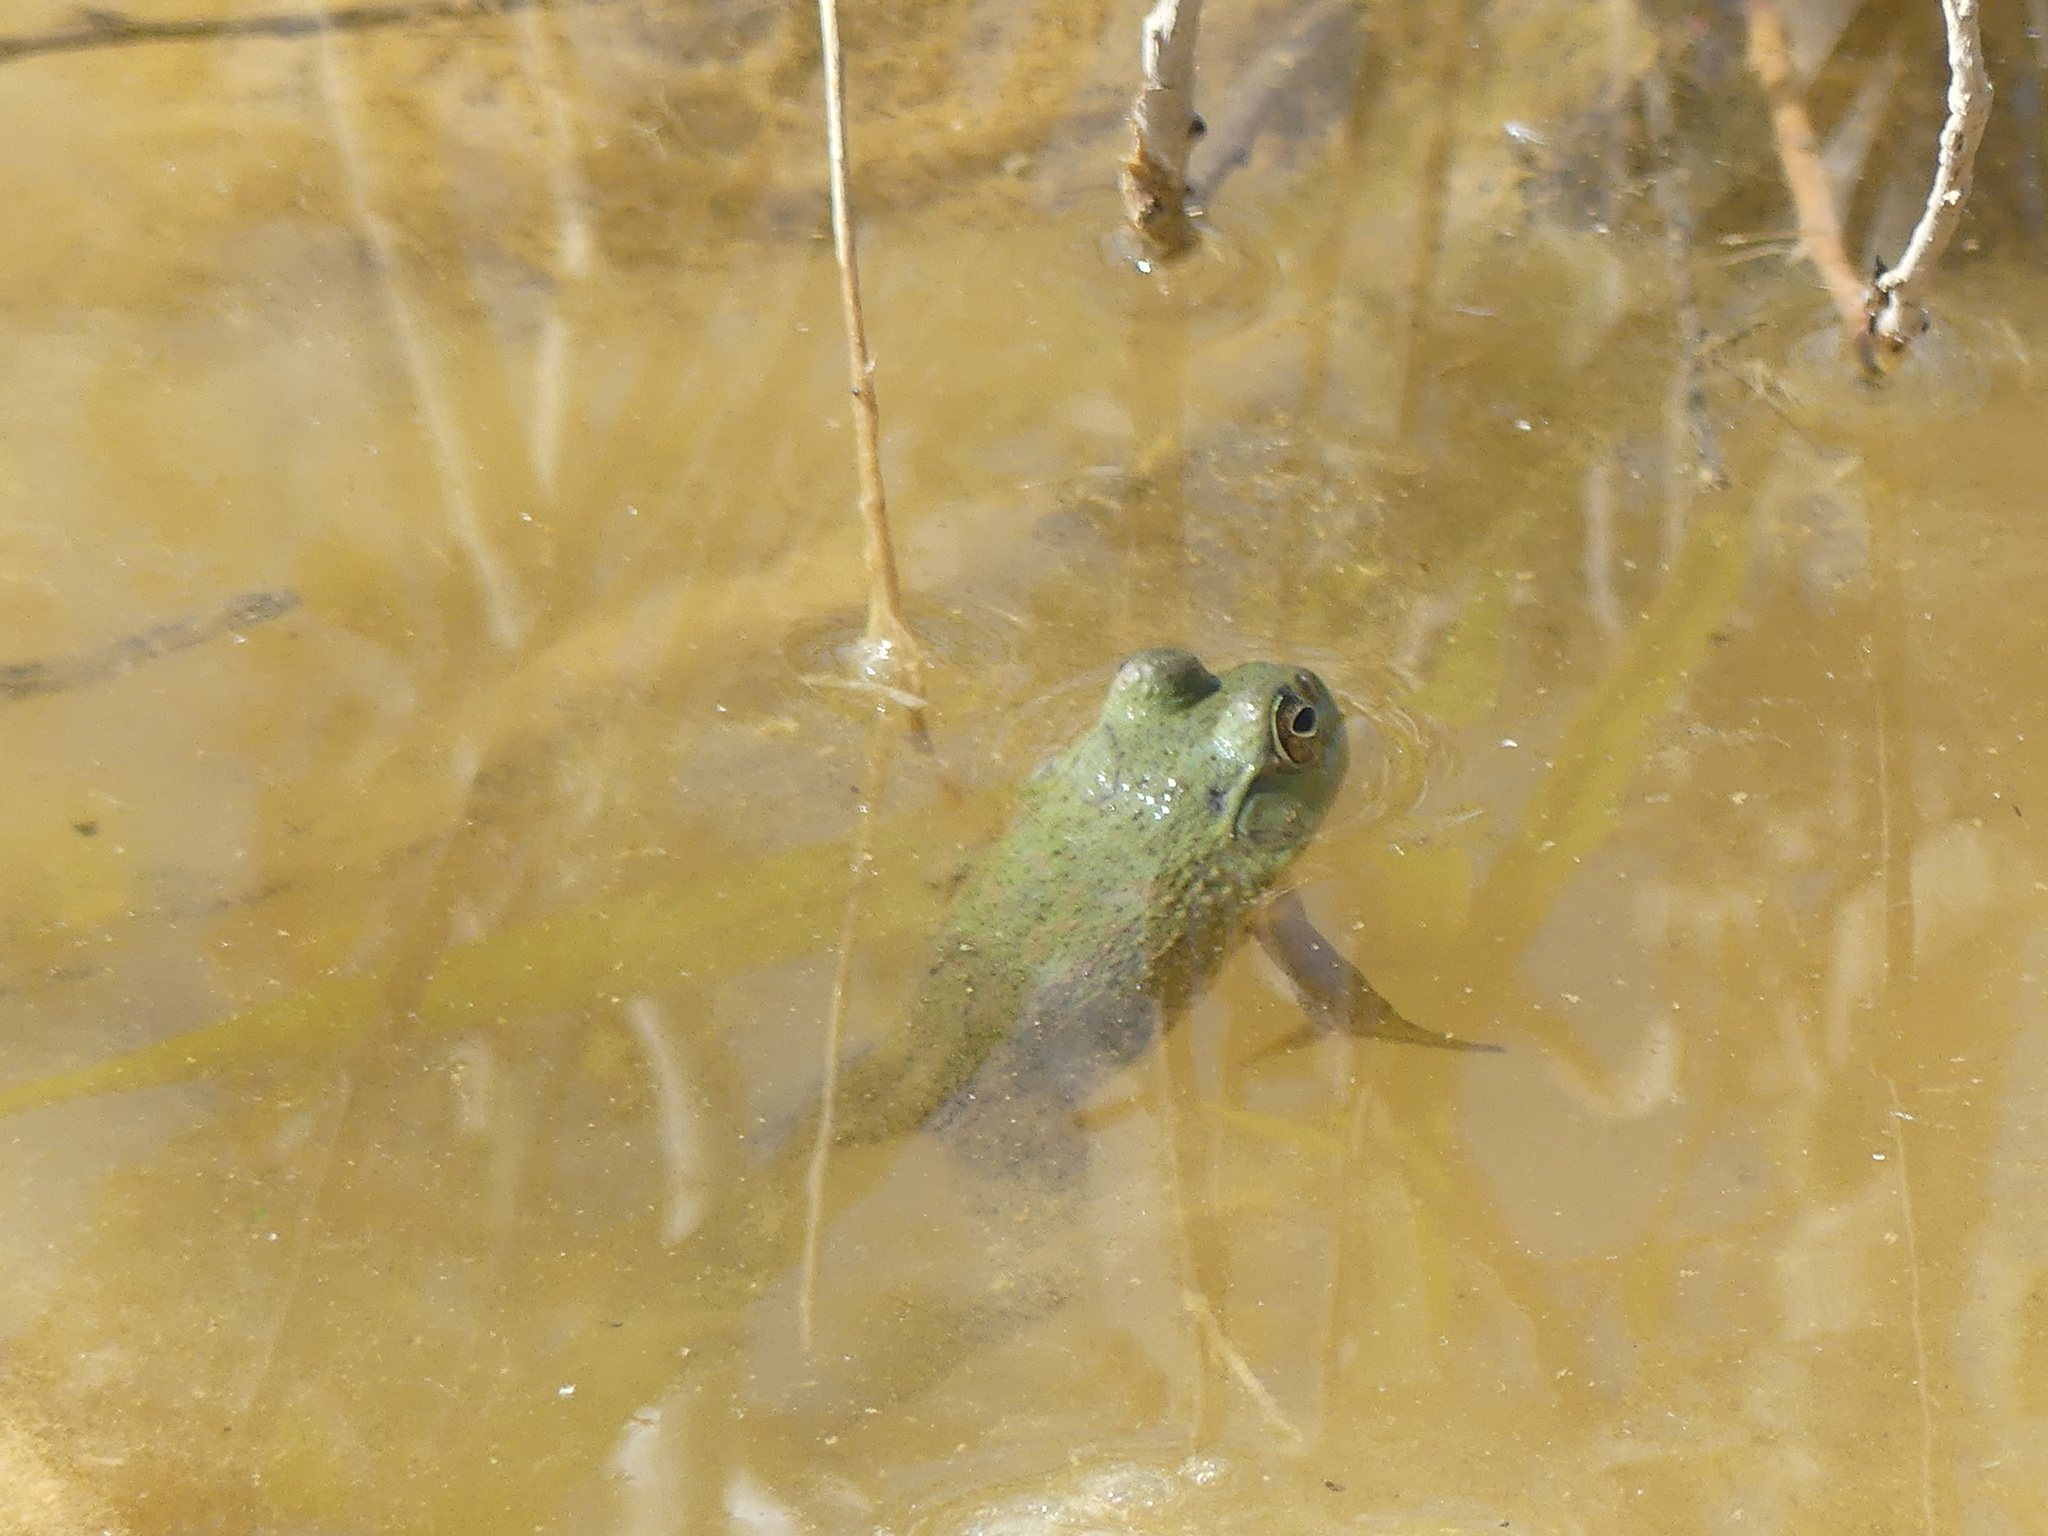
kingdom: Animalia
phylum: Chordata
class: Amphibia
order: Anura
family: Ranidae
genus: Lithobates
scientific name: Lithobates catesbeianus
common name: American bullfrog
